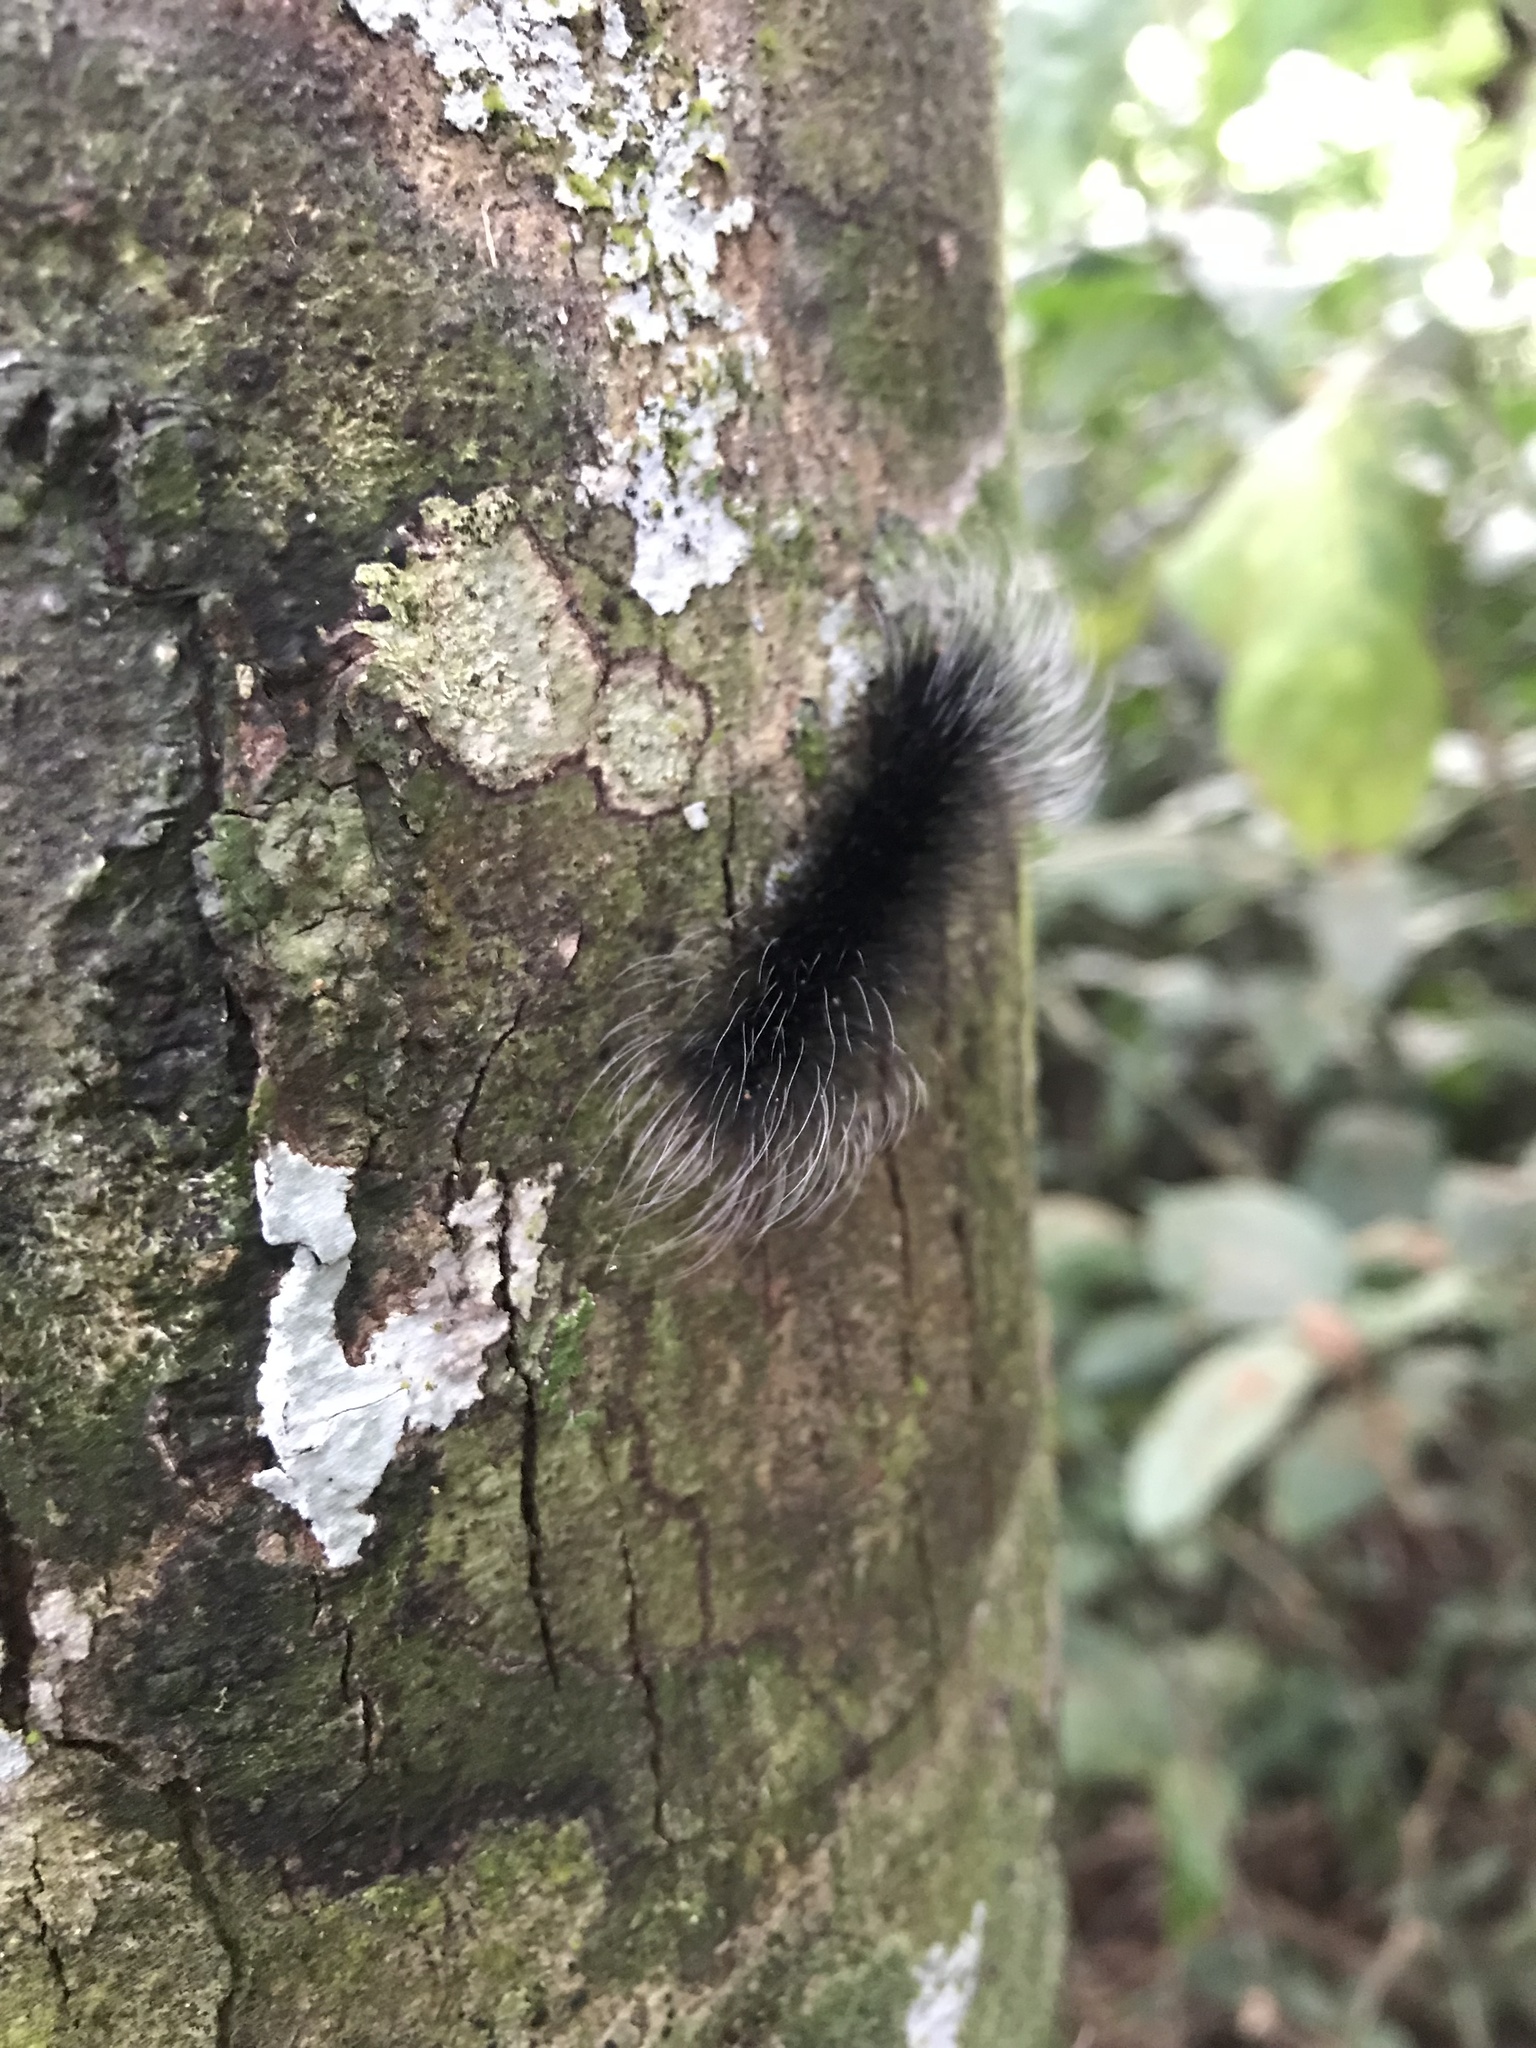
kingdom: Animalia
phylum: Arthropoda
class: Insecta
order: Lepidoptera
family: Erebidae
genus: Apistosia
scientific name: Apistosia judas
